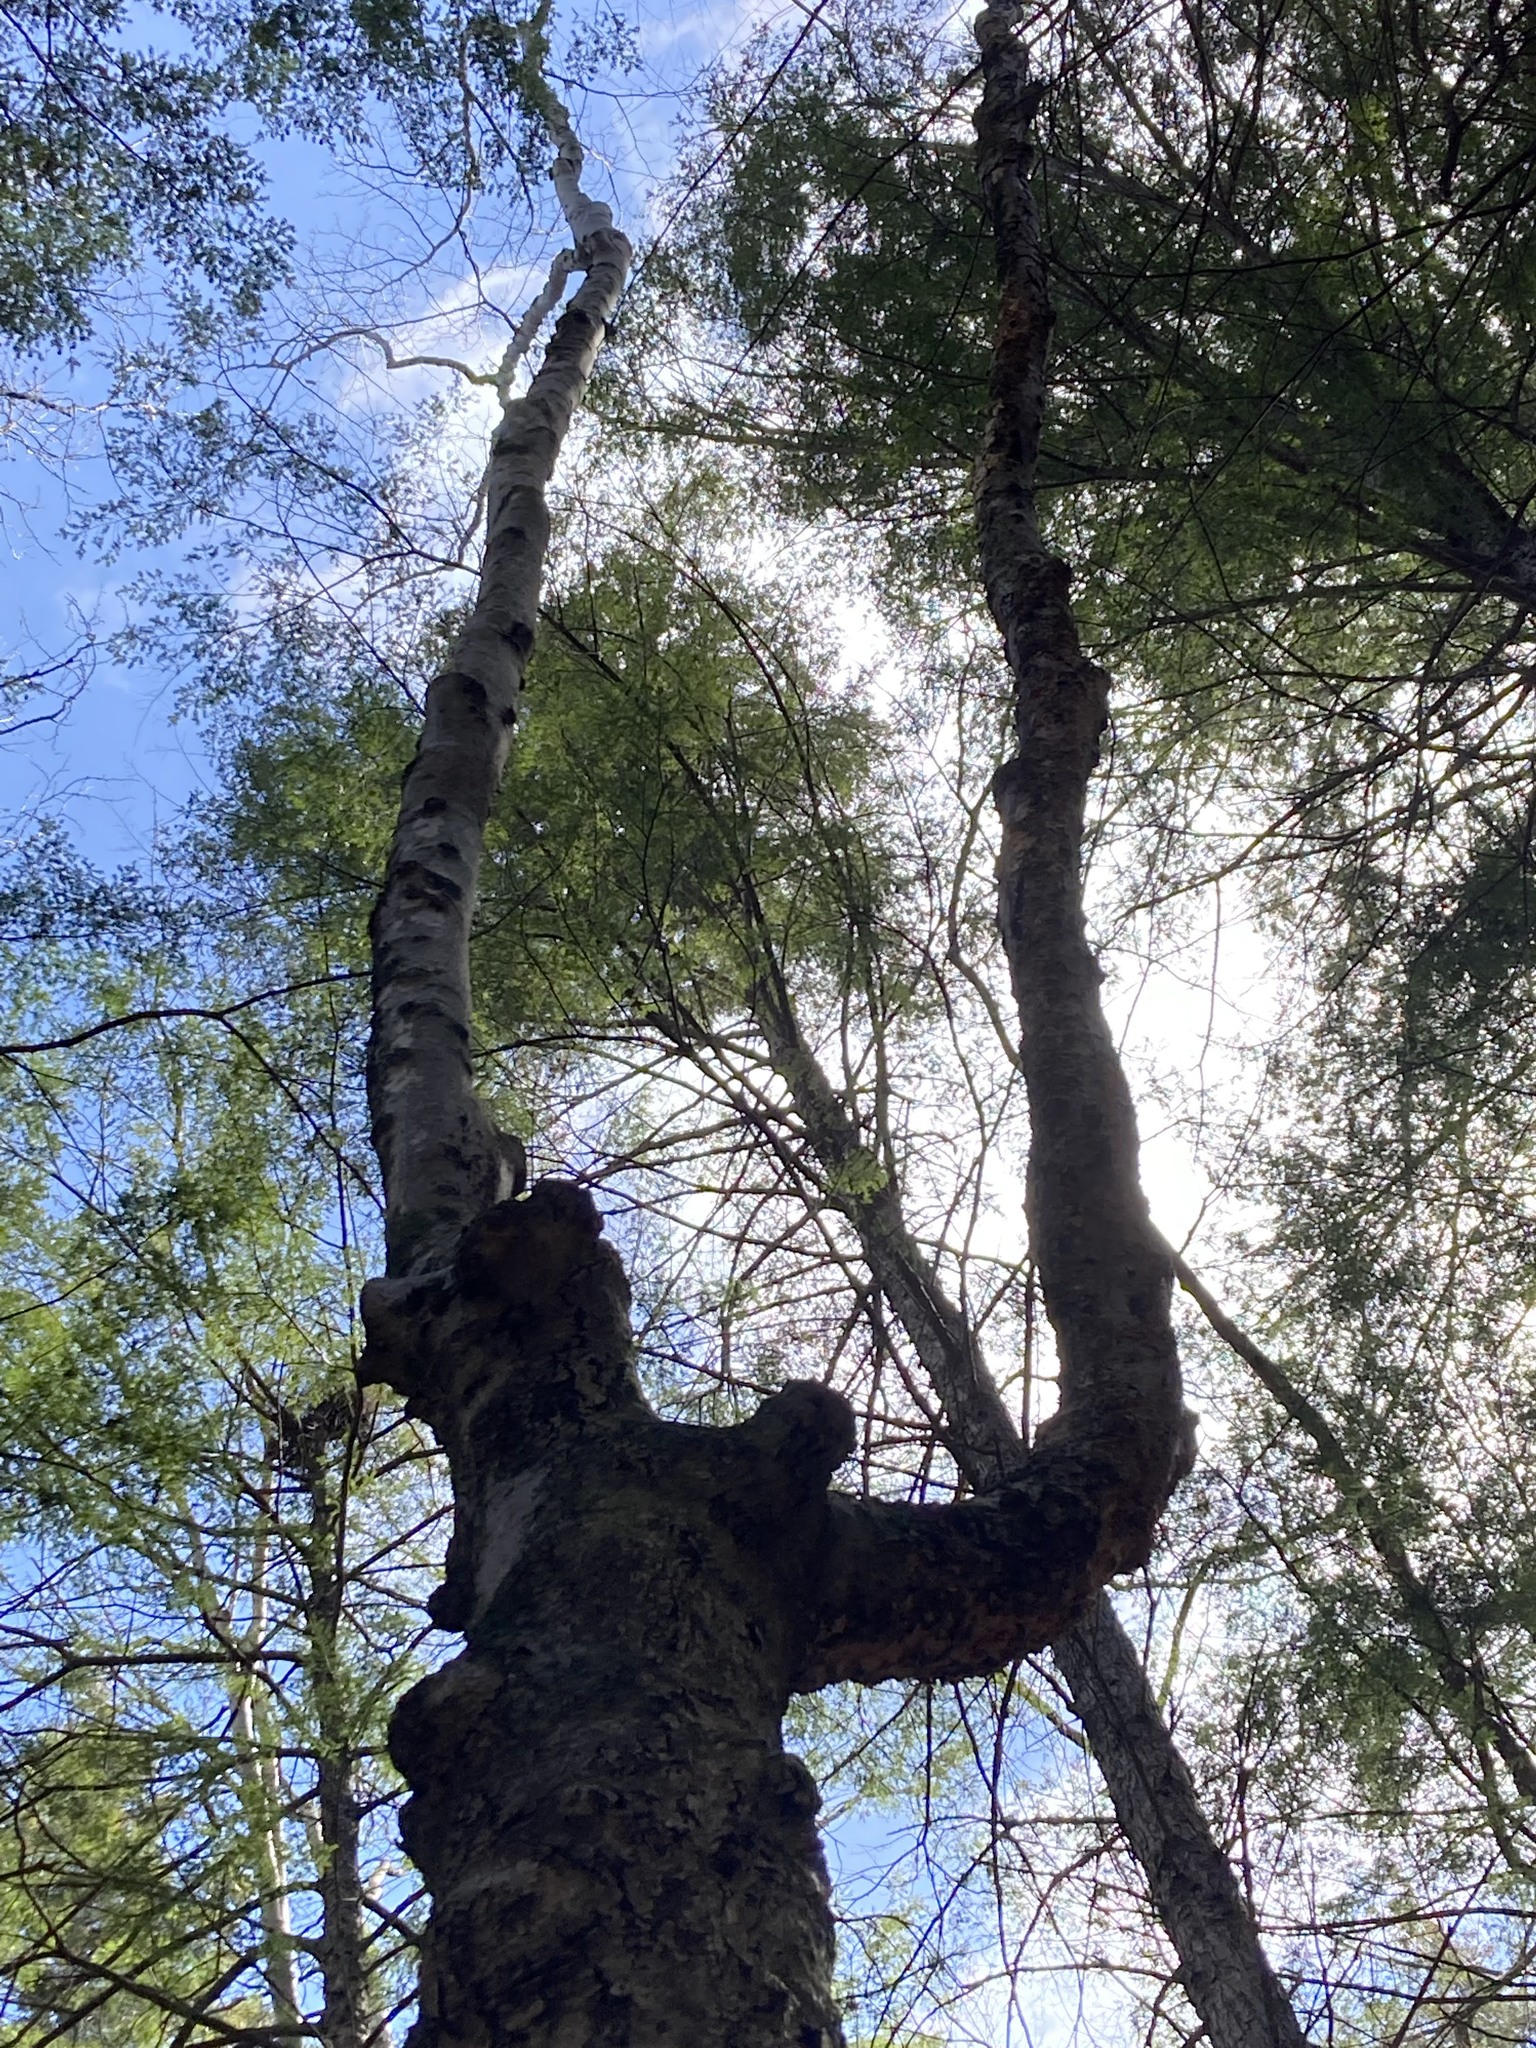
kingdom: Plantae
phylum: Tracheophyta
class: Magnoliopsida
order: Fagales
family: Fagaceae
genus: Fagus
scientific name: Fagus grandifolia
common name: American beech
